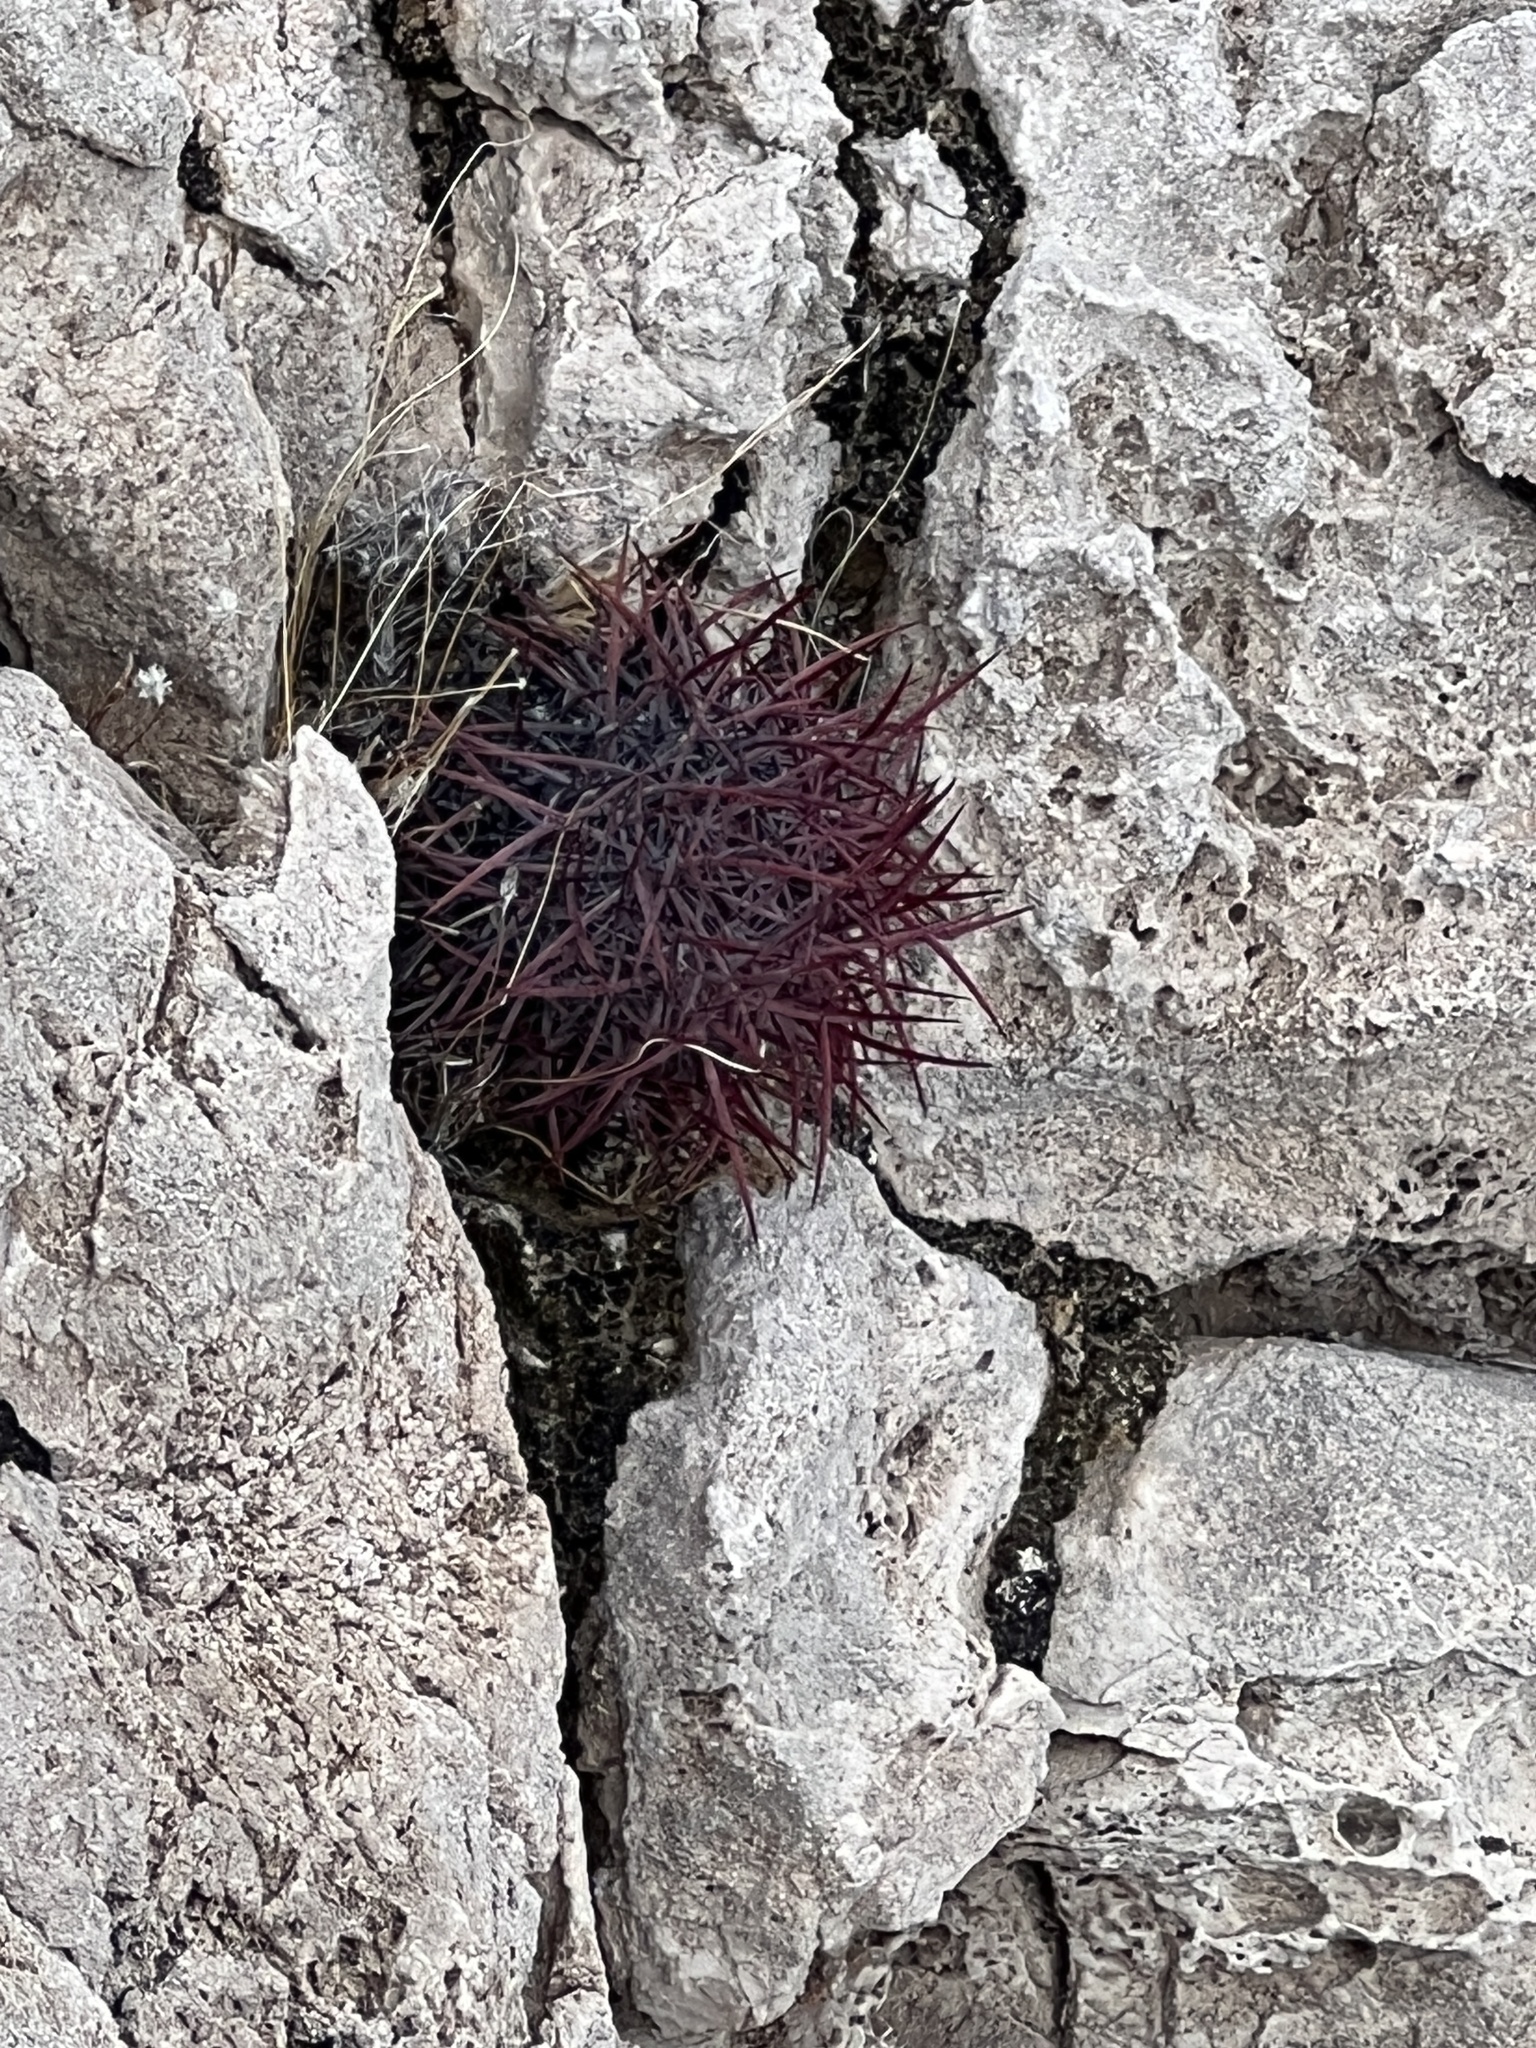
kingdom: Plantae
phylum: Tracheophyta
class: Magnoliopsida
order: Caryophyllales
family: Cactaceae
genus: Sclerocactus
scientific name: Sclerocactus johnsonii
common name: Eight-spine fishhook cactus
